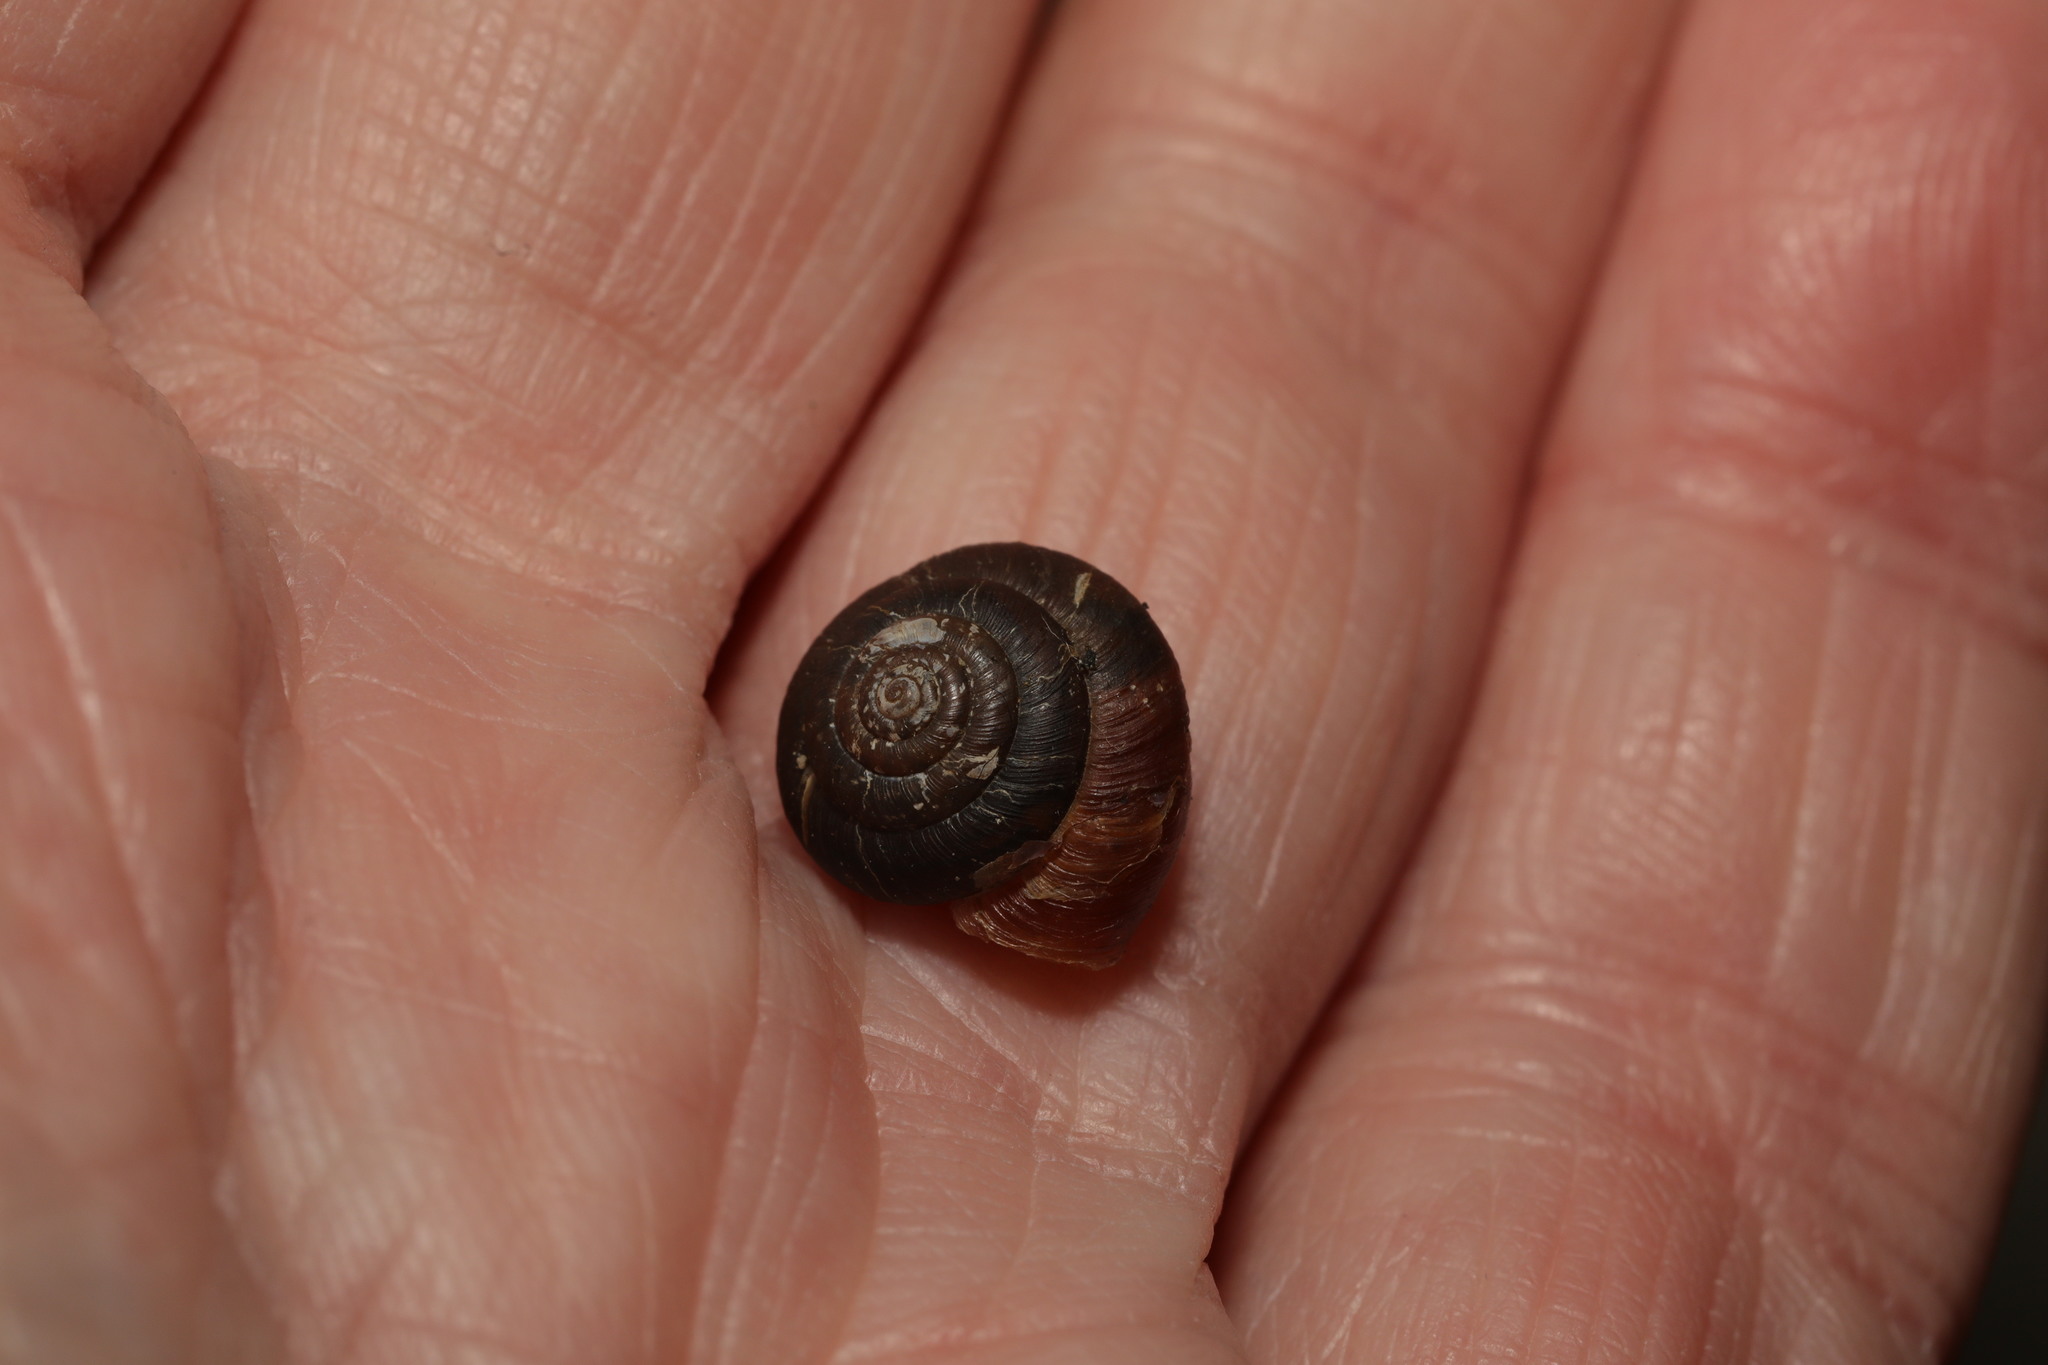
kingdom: Animalia
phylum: Mollusca
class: Gastropoda
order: Stylommatophora
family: Hygromiidae
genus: Trochulus
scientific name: Trochulus striolatus
